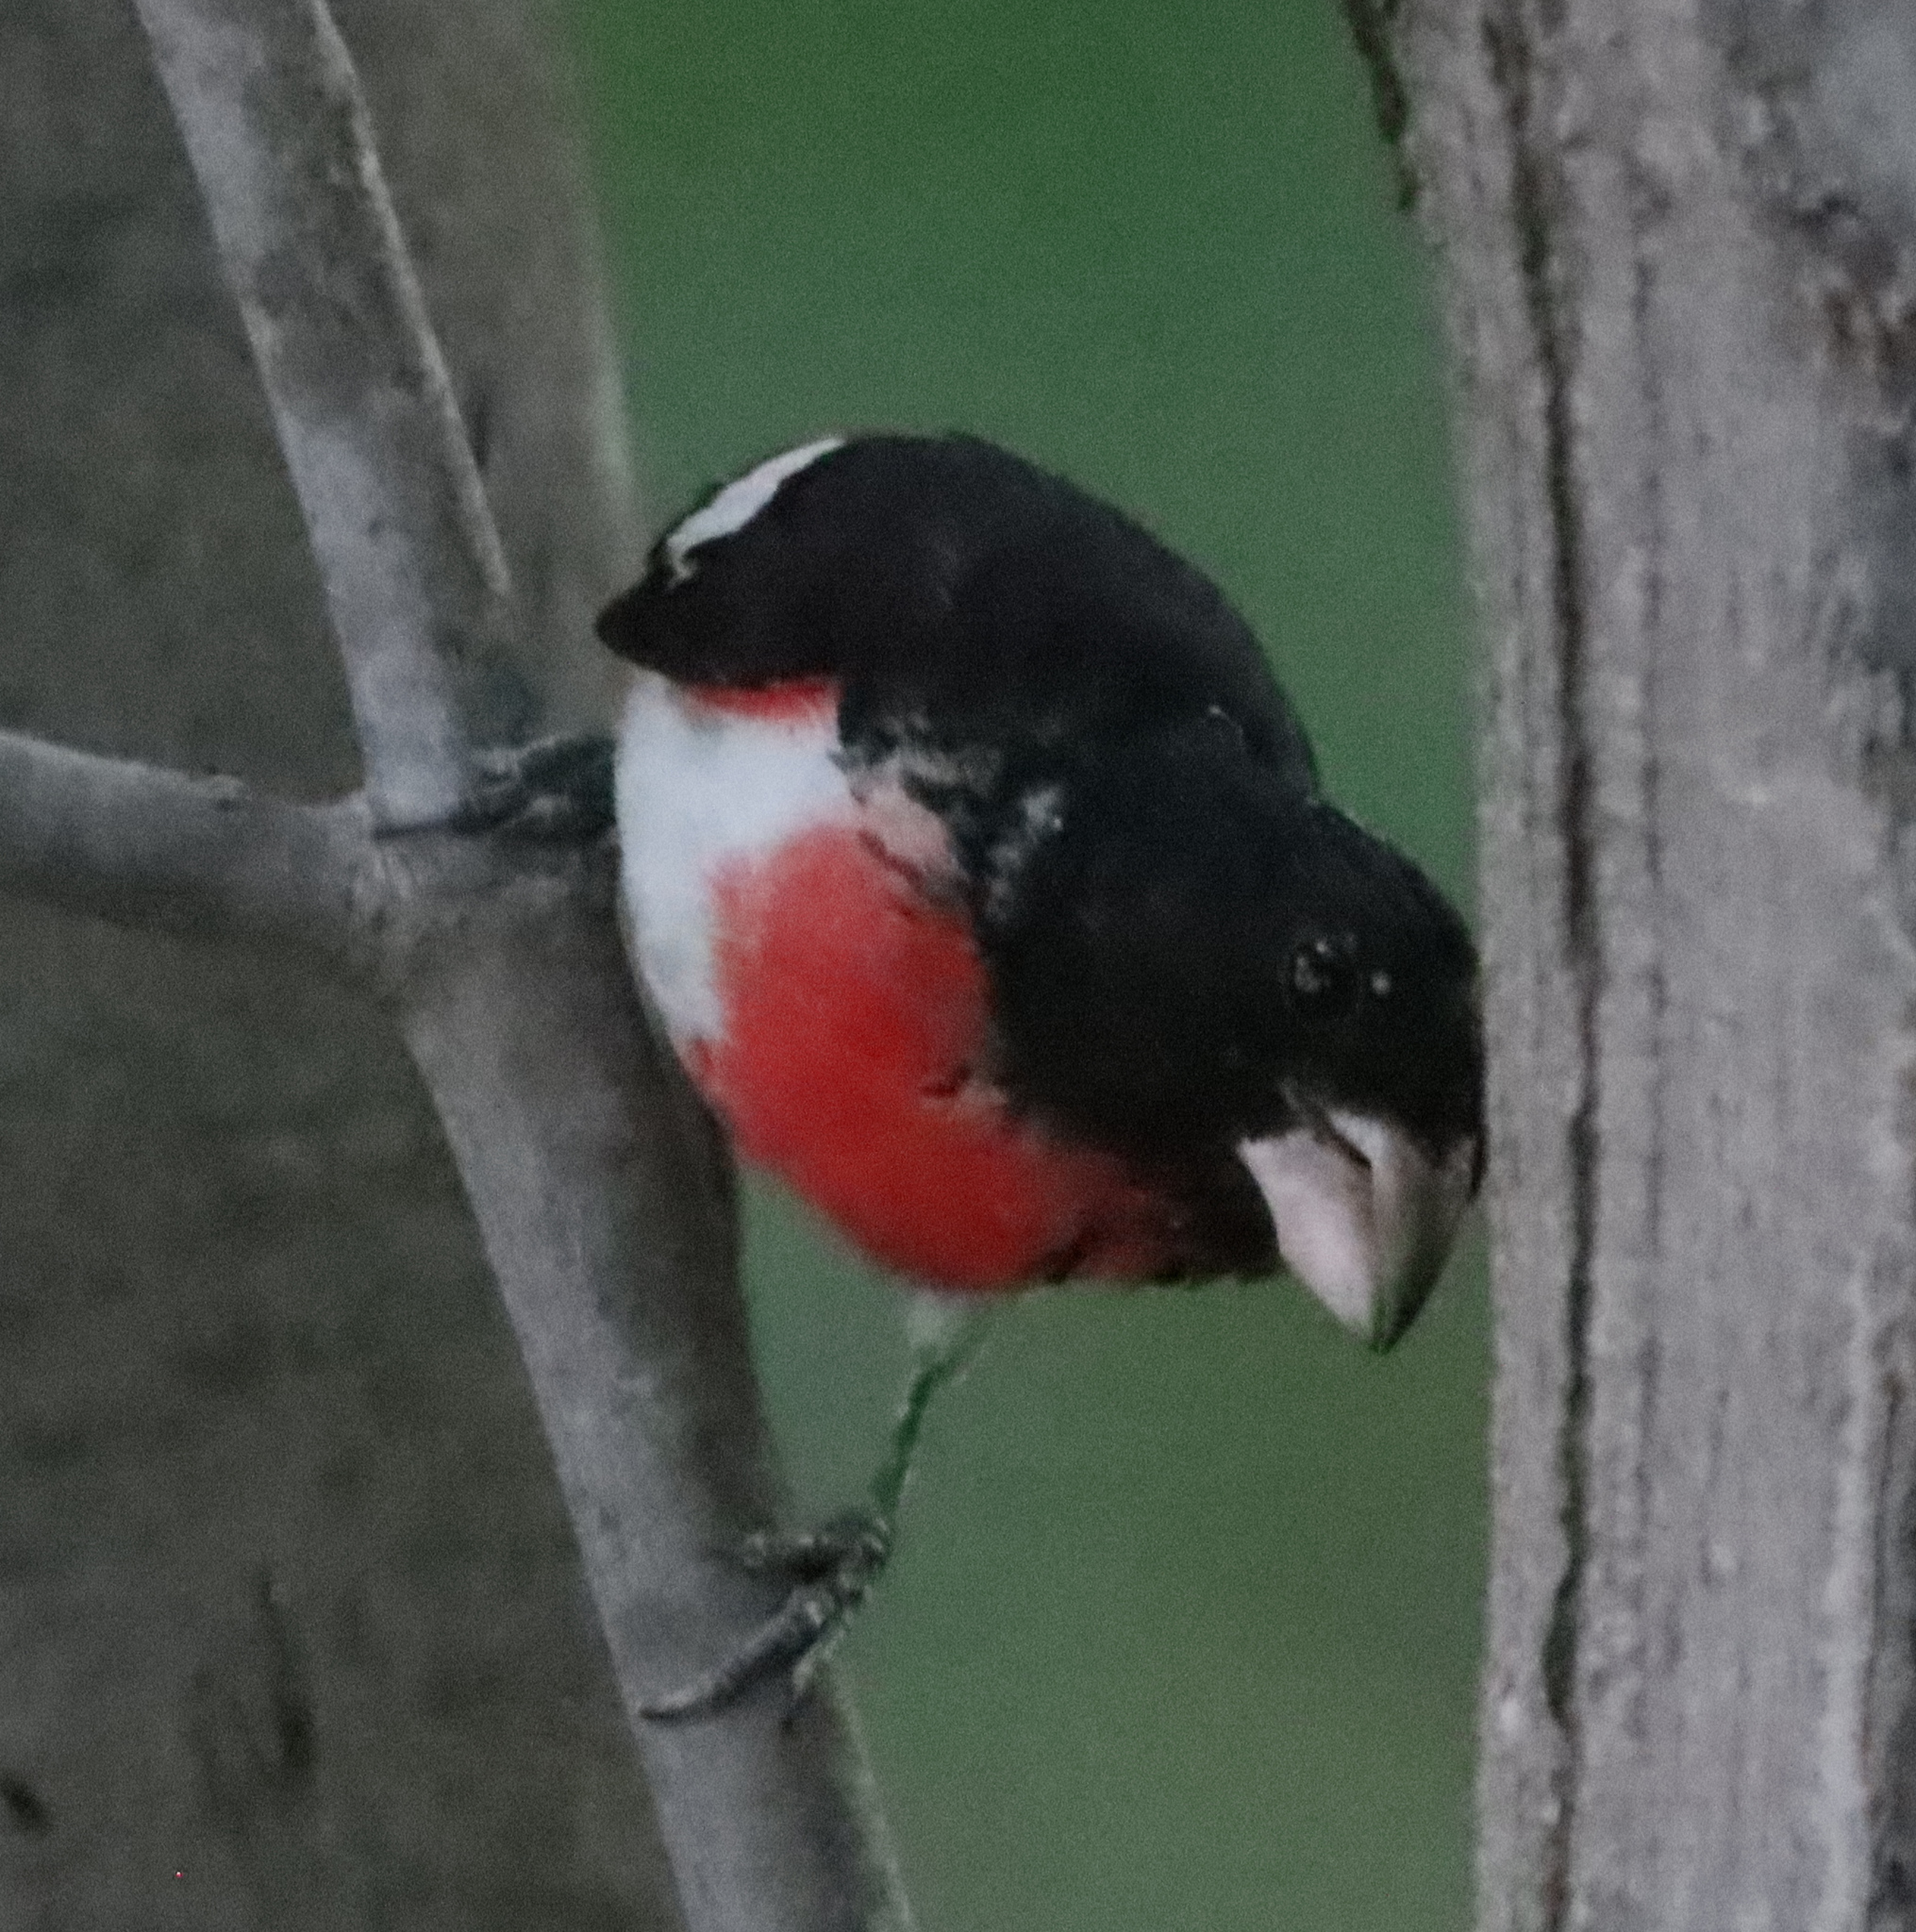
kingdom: Animalia
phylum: Chordata
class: Aves
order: Passeriformes
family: Cardinalidae
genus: Pheucticus
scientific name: Pheucticus ludovicianus
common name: Rose-breasted grosbeak
